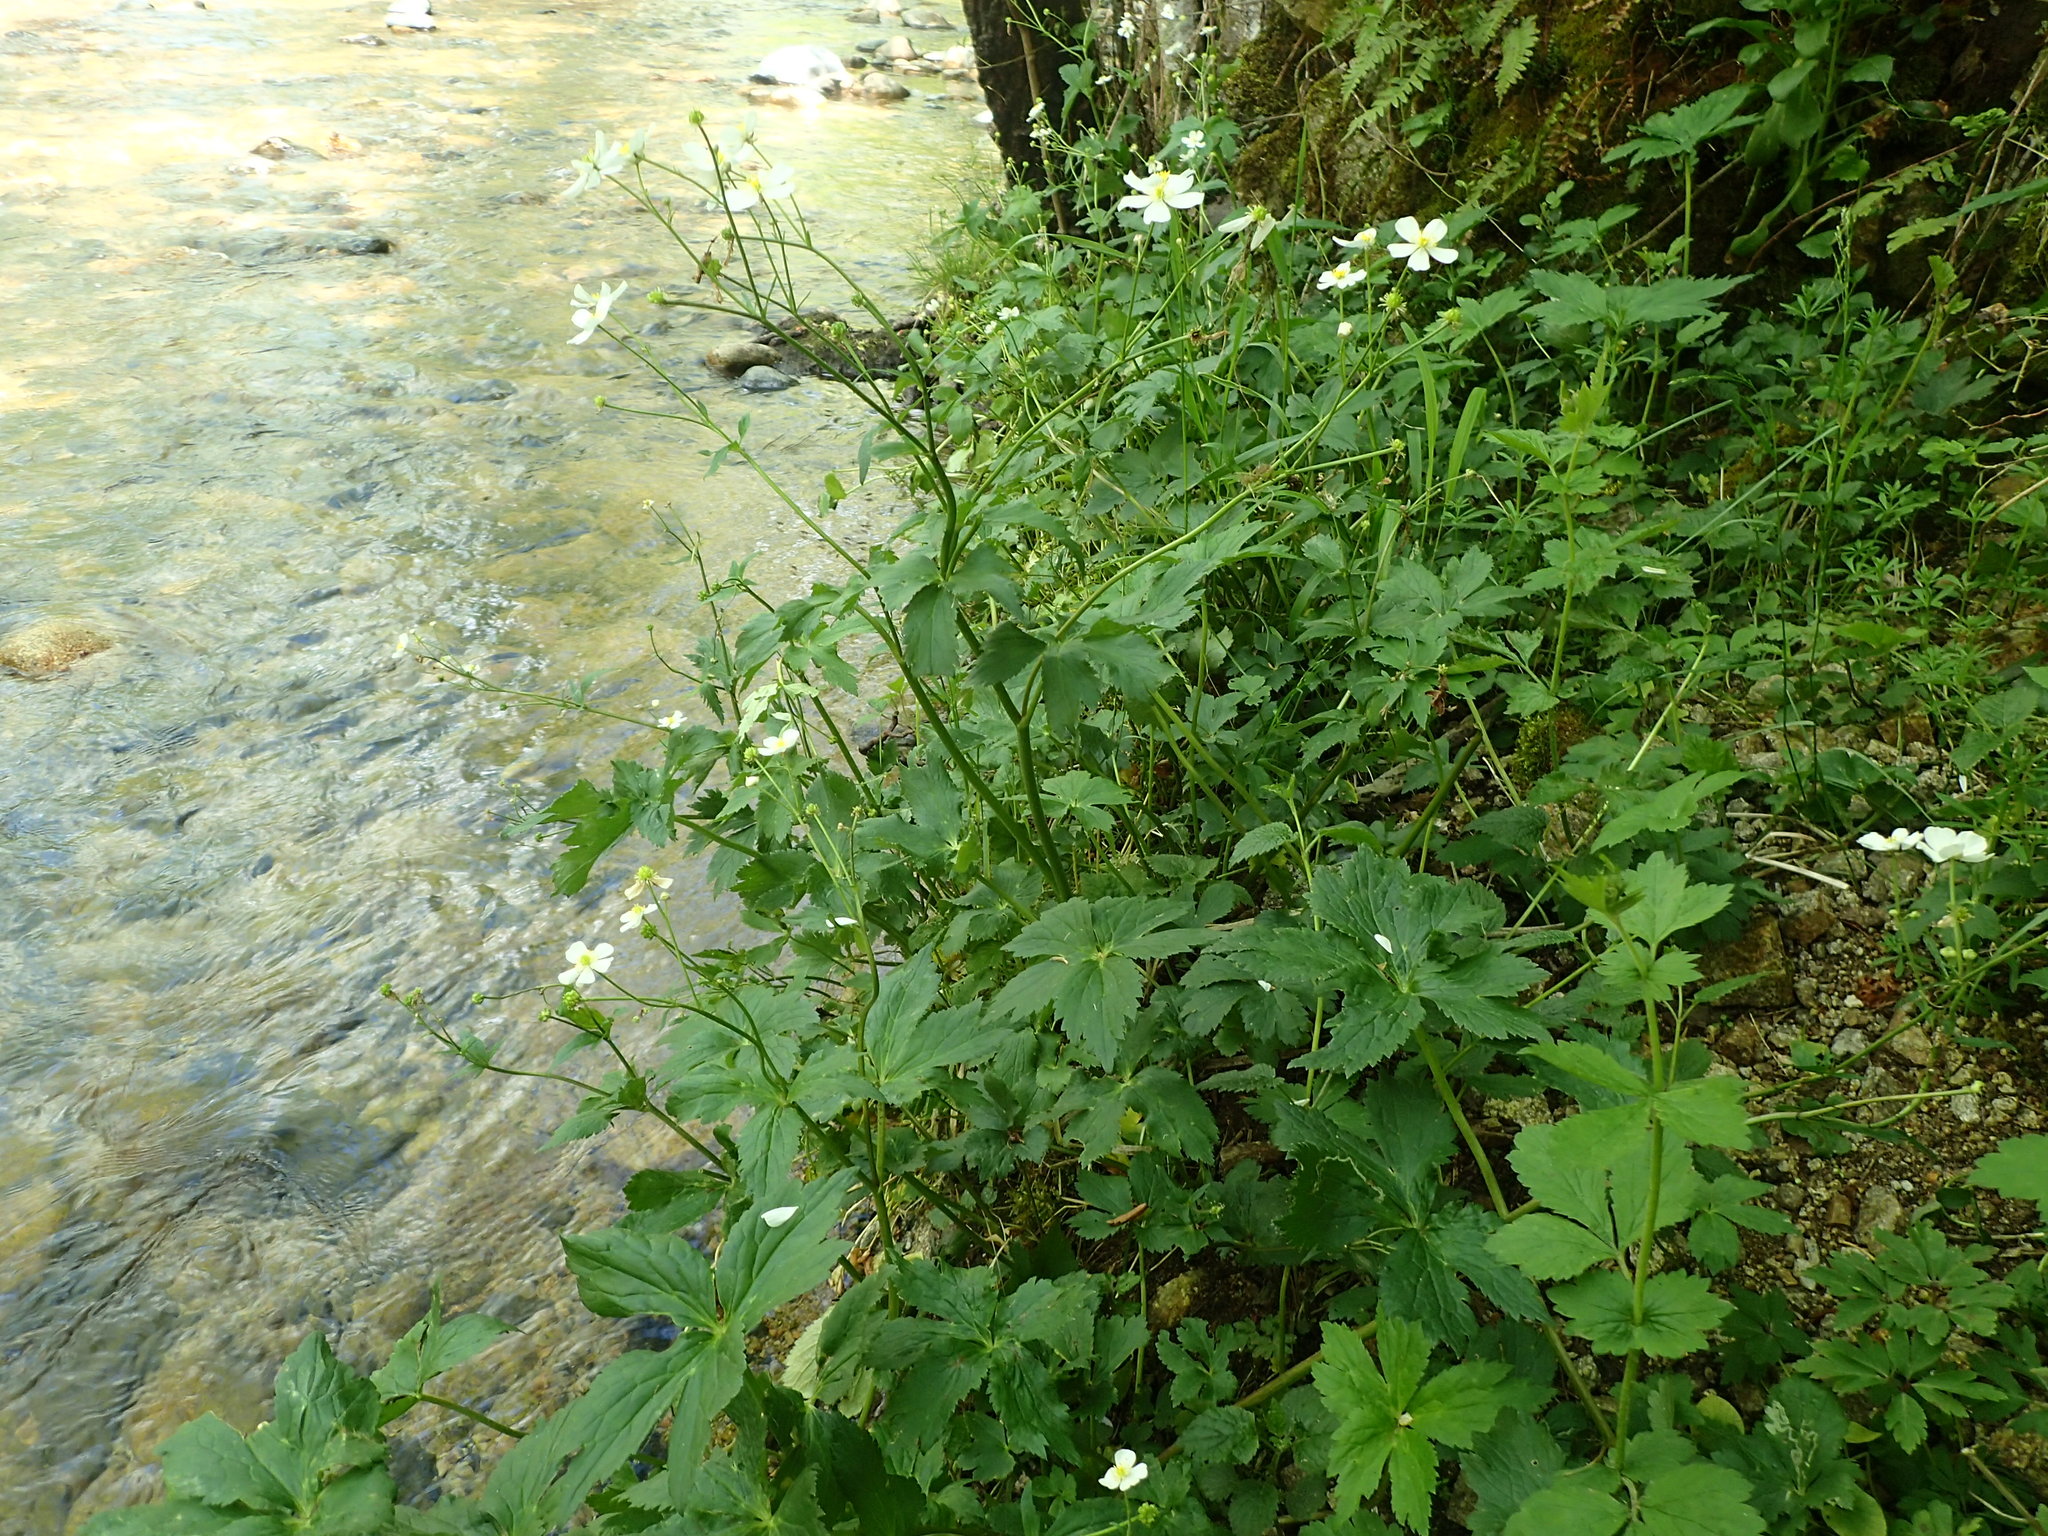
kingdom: Plantae
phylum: Tracheophyta
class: Magnoliopsida
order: Ranunculales
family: Ranunculaceae
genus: Ranunculus
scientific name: Ranunculus aconitifolius
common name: Aconite-leaved buttercup
